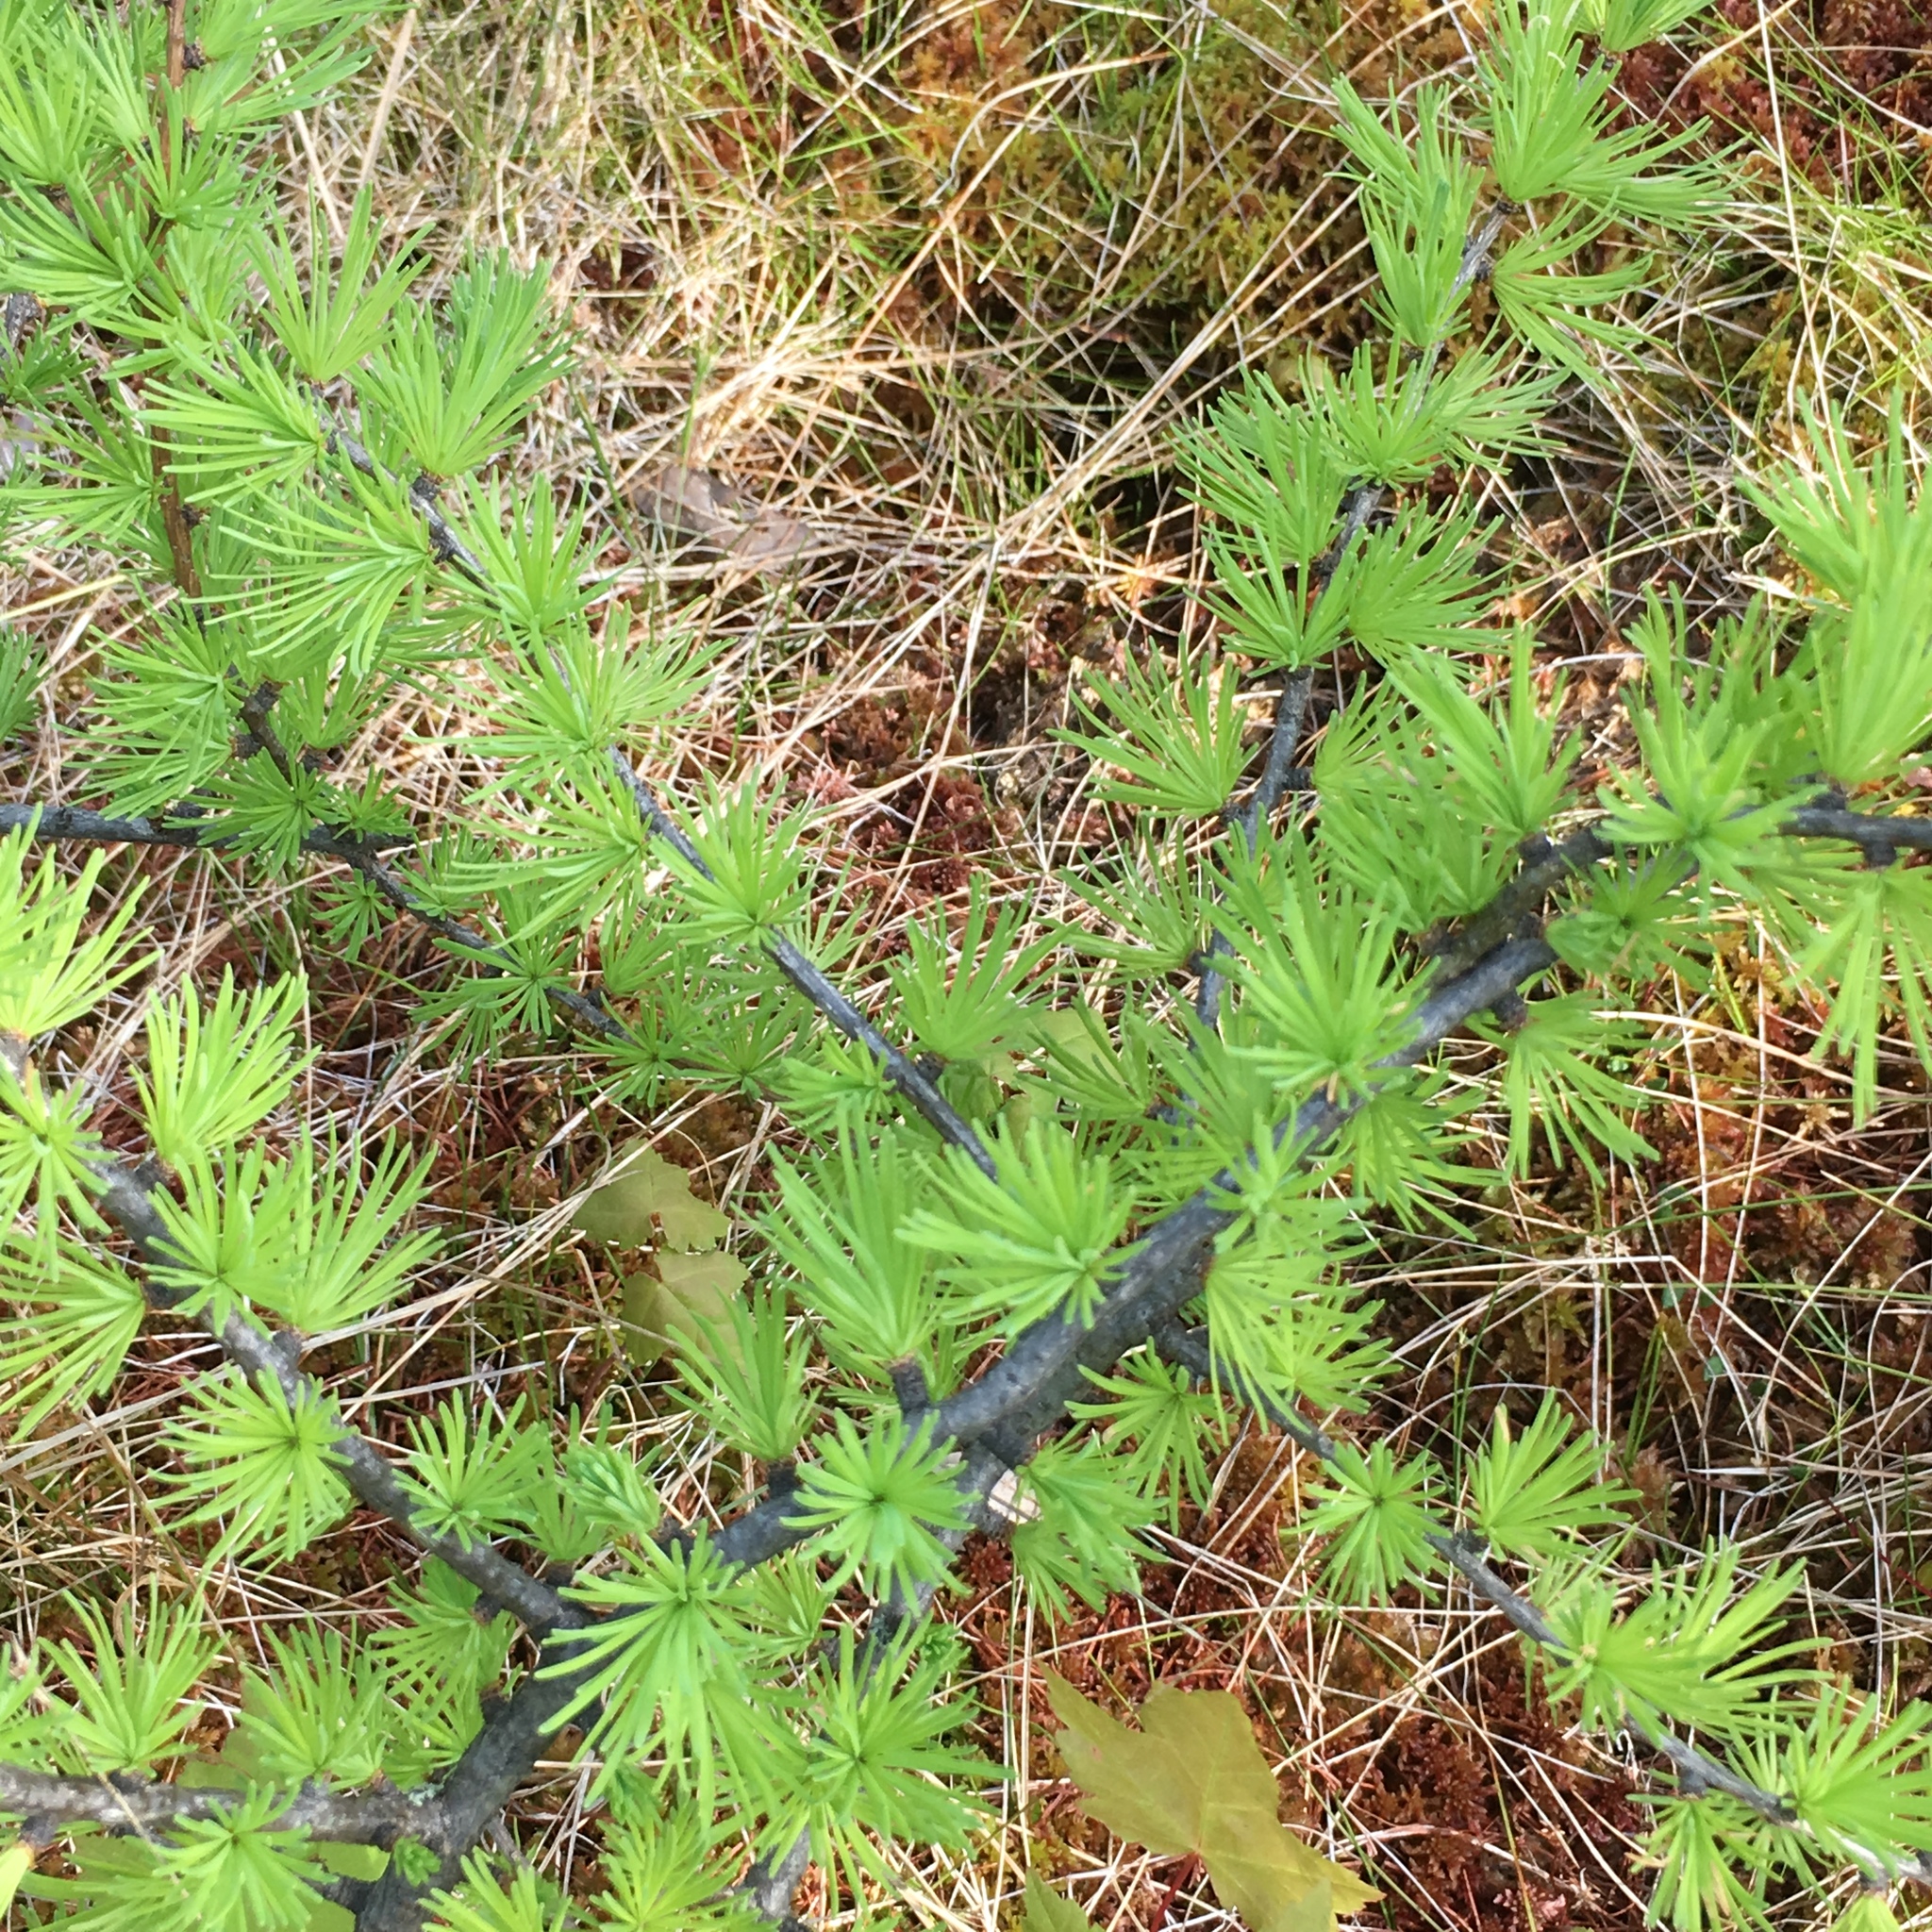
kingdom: Plantae
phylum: Tracheophyta
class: Pinopsida
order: Pinales
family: Pinaceae
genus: Larix
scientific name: Larix laricina
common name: American larch
